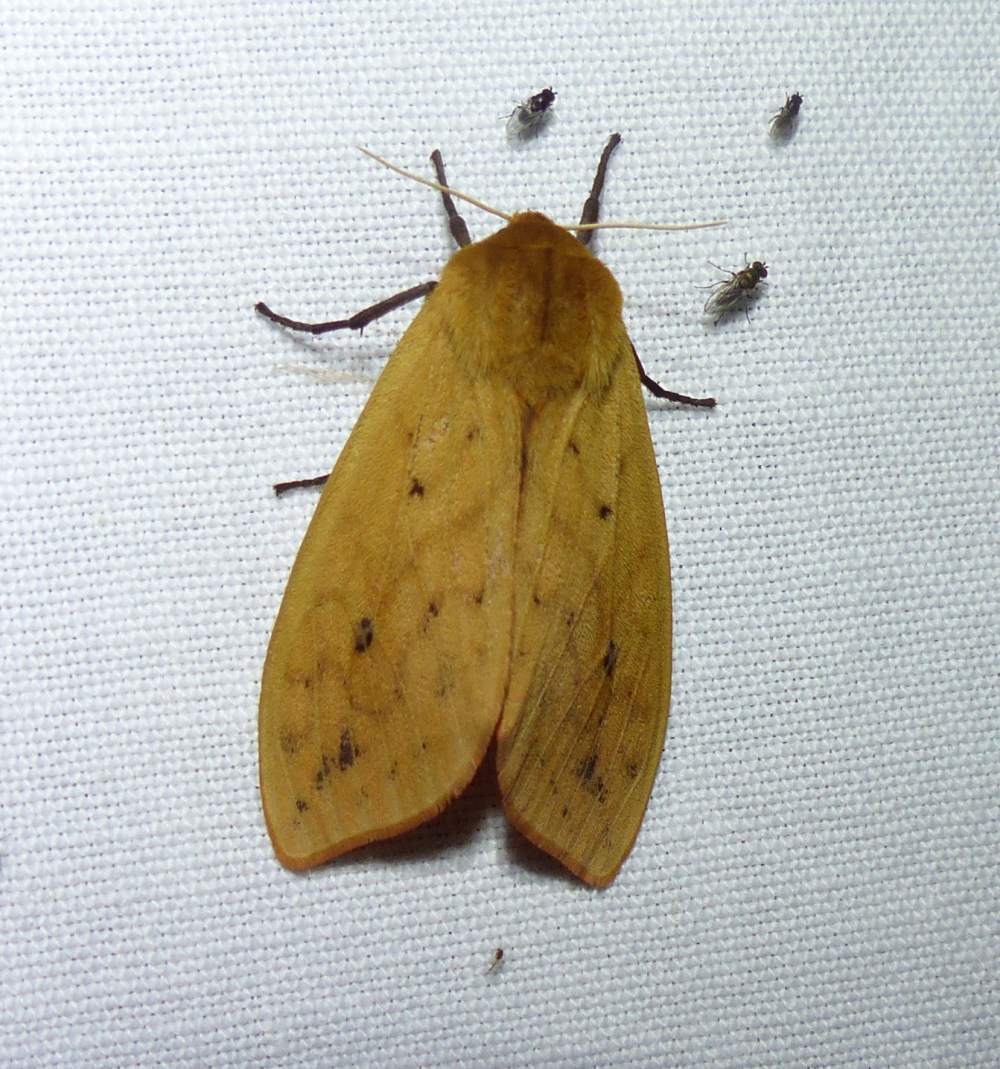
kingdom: Animalia
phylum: Arthropoda
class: Insecta
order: Lepidoptera
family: Erebidae
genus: Pyrrharctia
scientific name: Pyrrharctia isabella
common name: Isabella tiger moth
